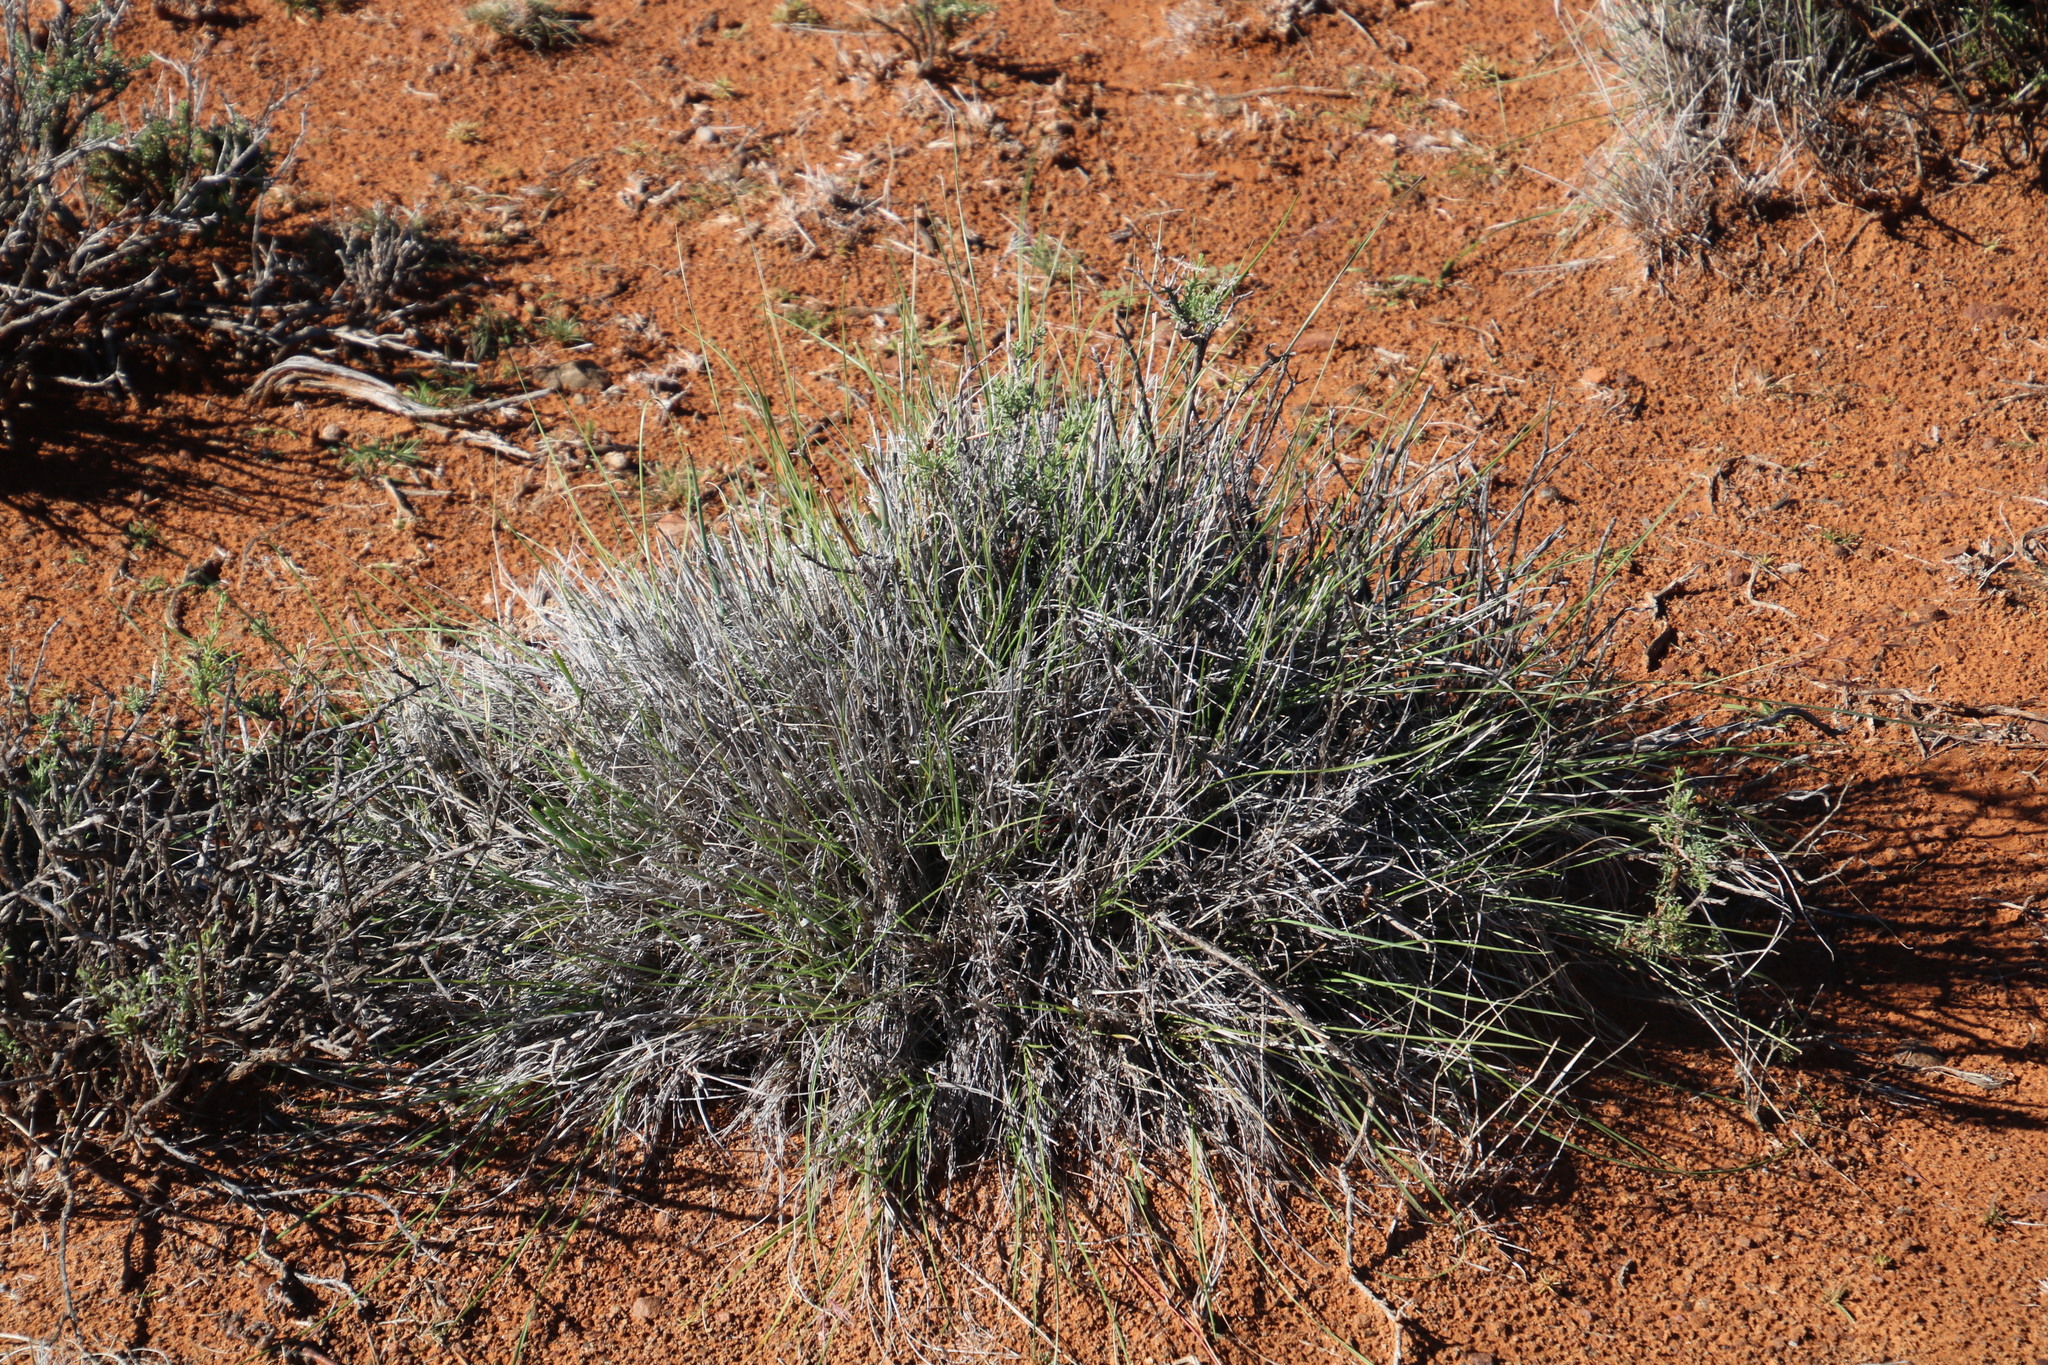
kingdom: Plantae
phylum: Tracheophyta
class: Liliopsida
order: Poales
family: Poaceae
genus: Aristida
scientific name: Aristida diffusa
